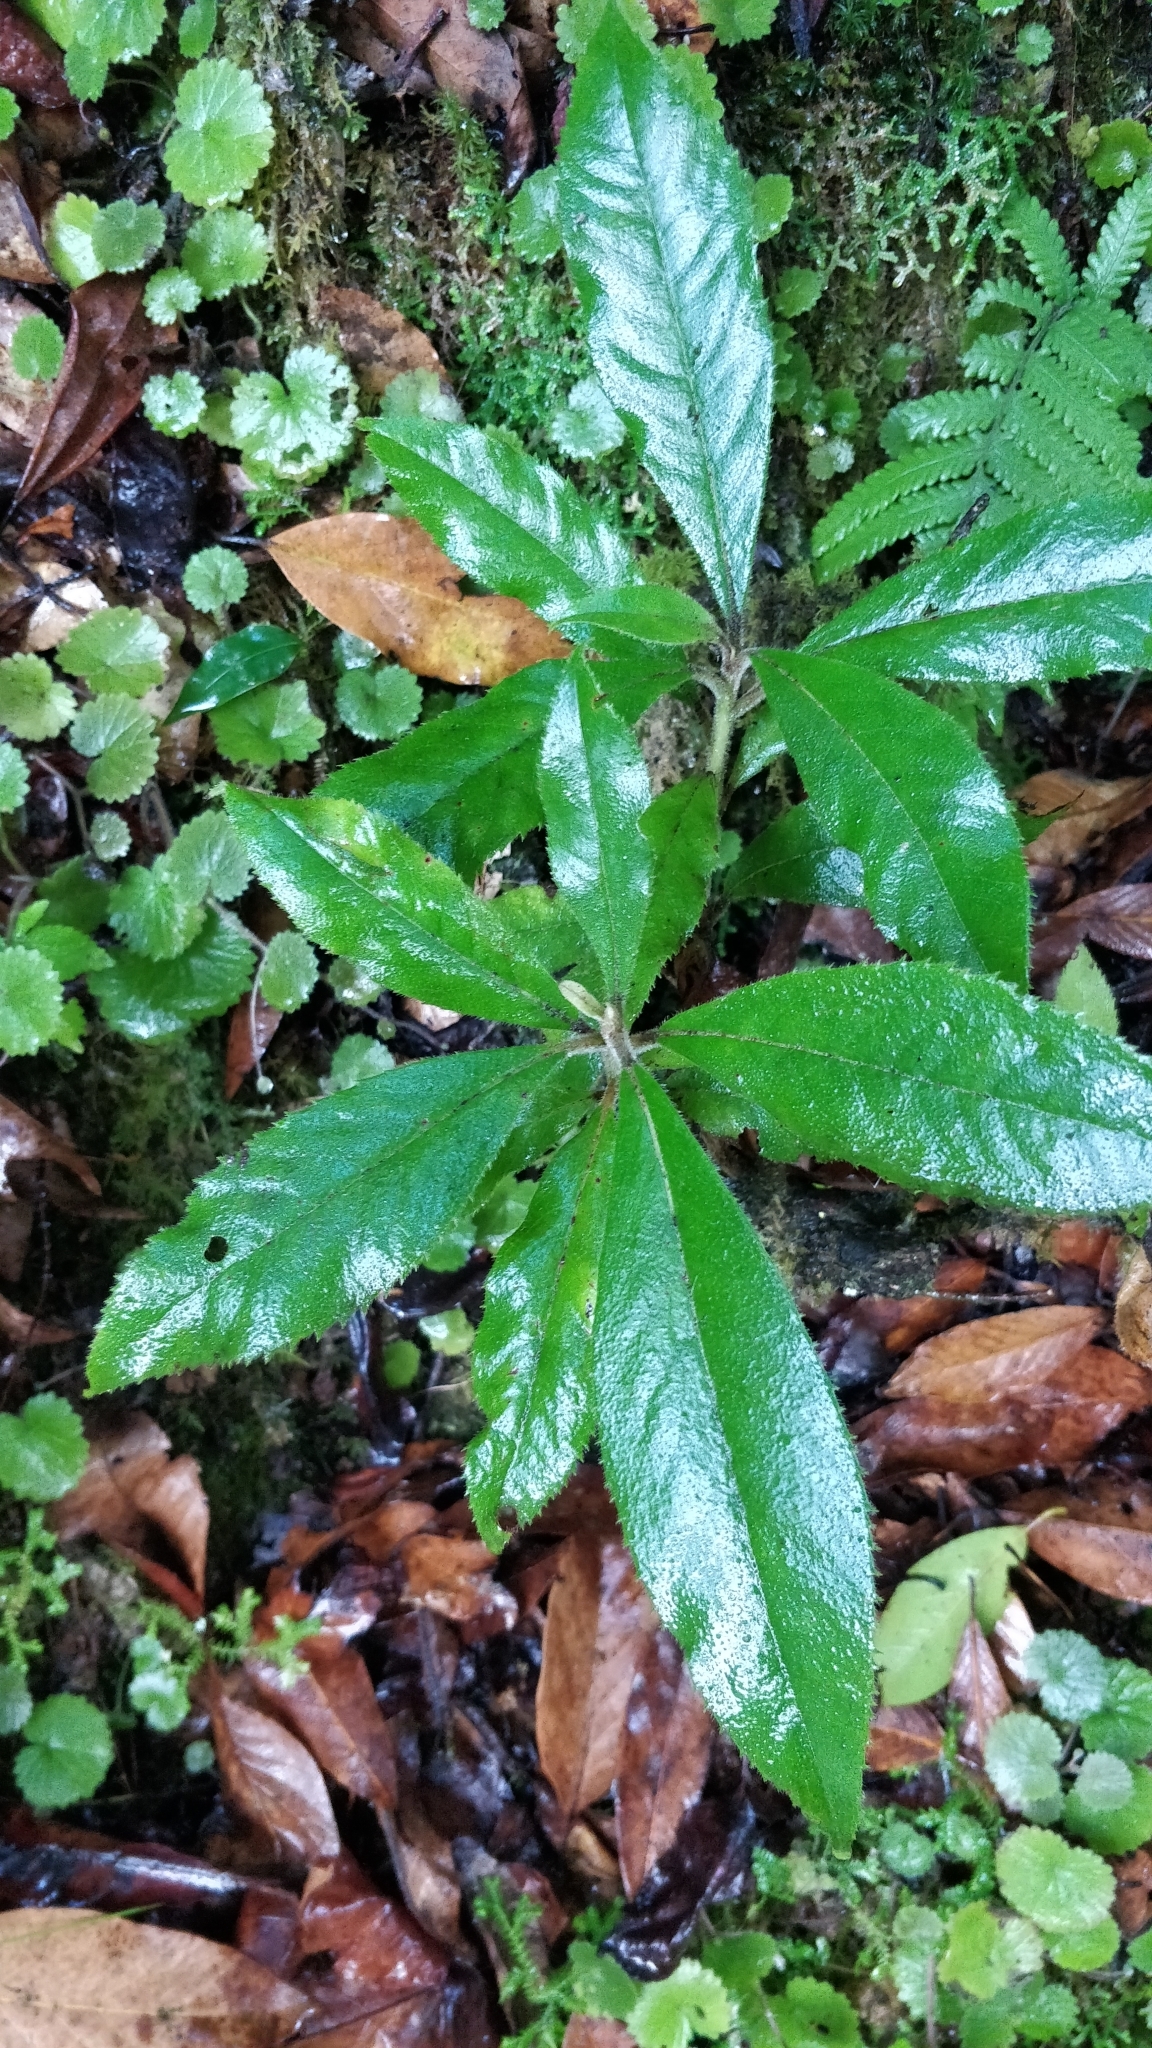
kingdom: Plantae
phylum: Tracheophyta
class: Magnoliopsida
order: Ericales
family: Clethraceae
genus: Clethra
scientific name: Clethra arborea
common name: Lily-of-the-valley-tree
